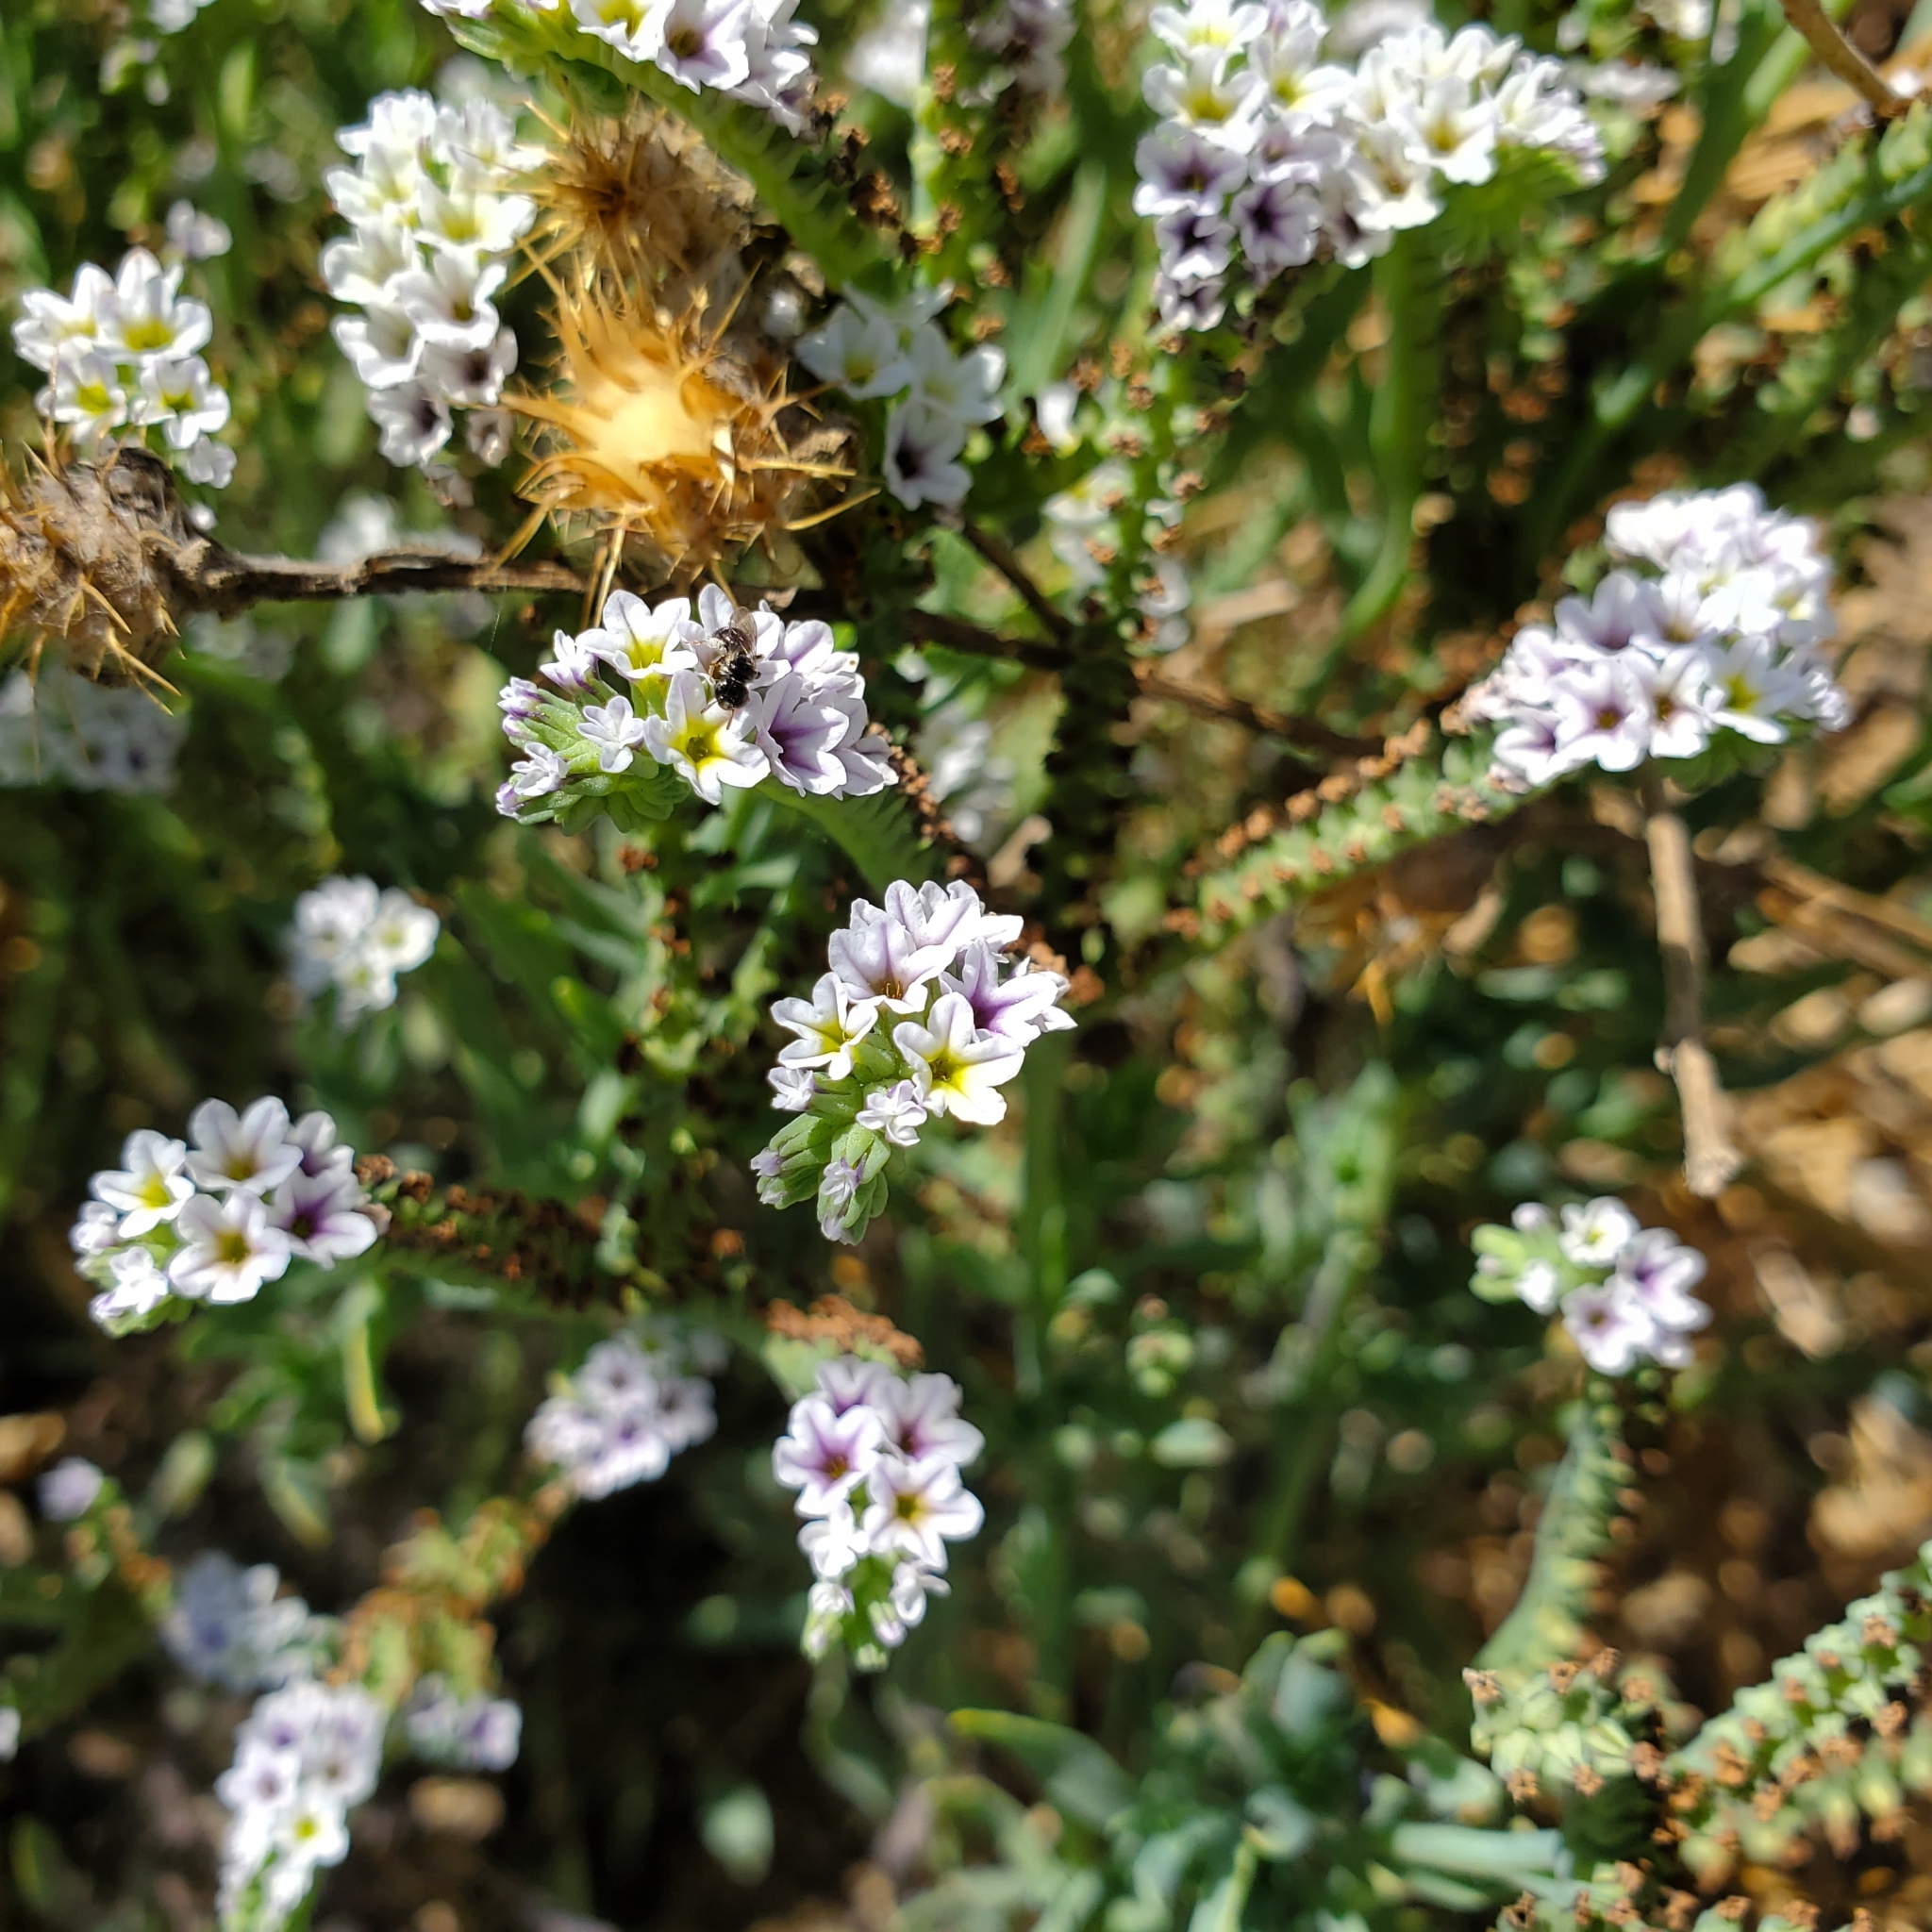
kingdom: Plantae
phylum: Tracheophyta
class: Magnoliopsida
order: Boraginales
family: Heliotropiaceae
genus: Heliotropium
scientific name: Heliotropium curassavicum
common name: Seaside heliotrope
